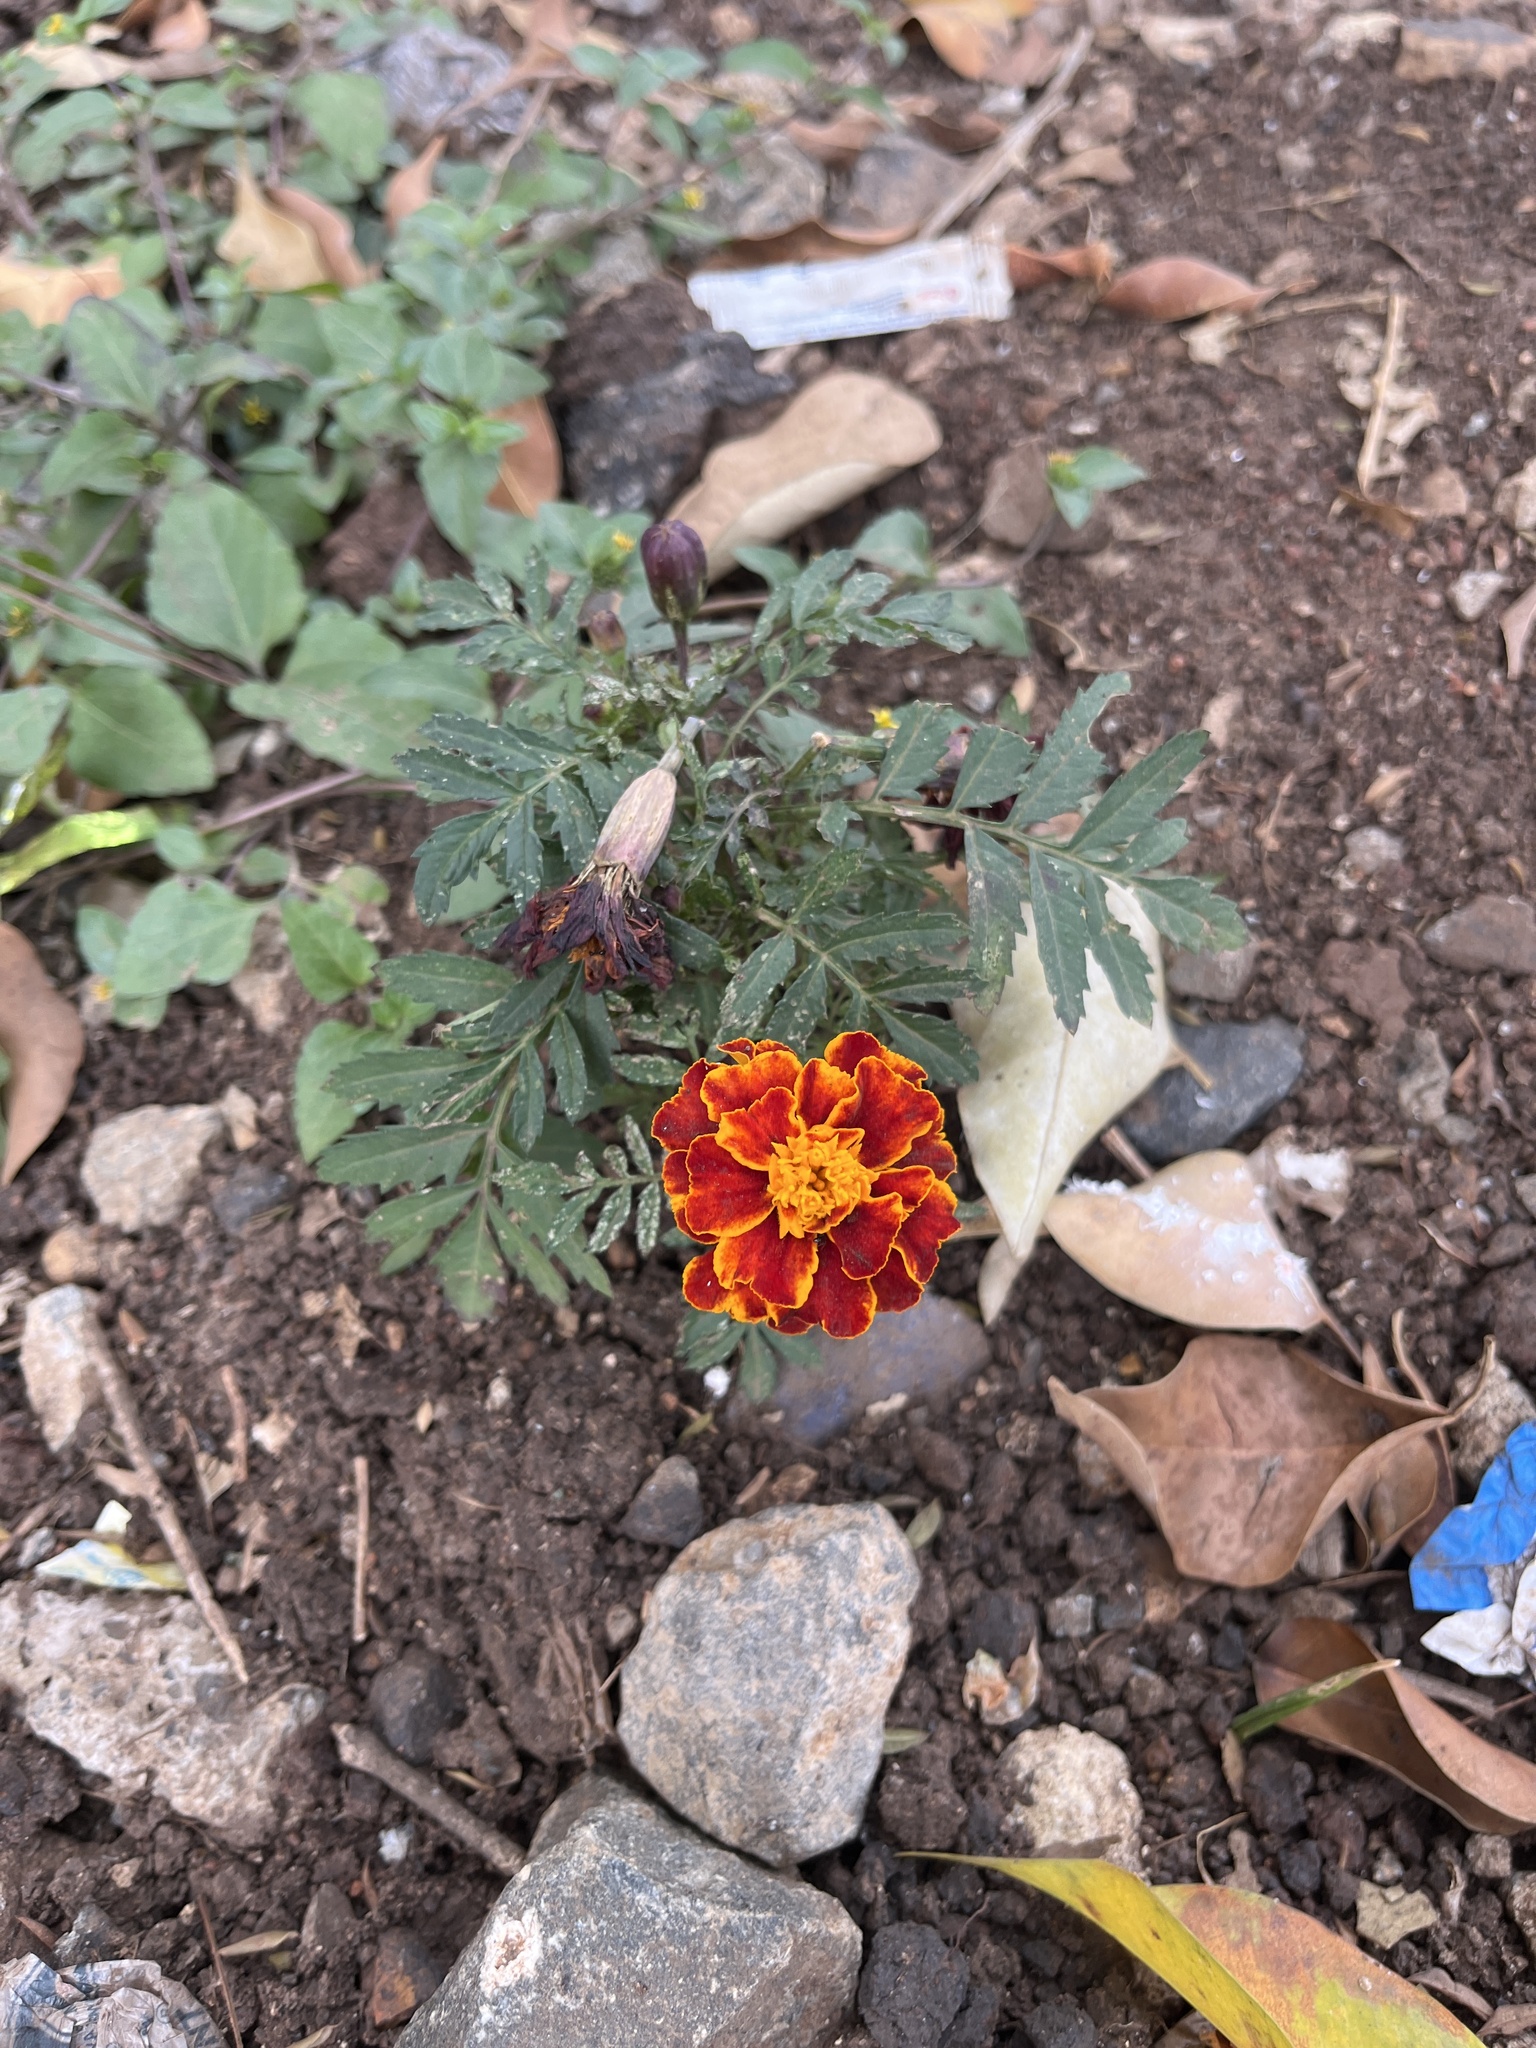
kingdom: Plantae
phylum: Tracheophyta
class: Magnoliopsida
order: Asterales
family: Asteraceae
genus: Tagetes
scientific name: Tagetes erecta
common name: African marigold
